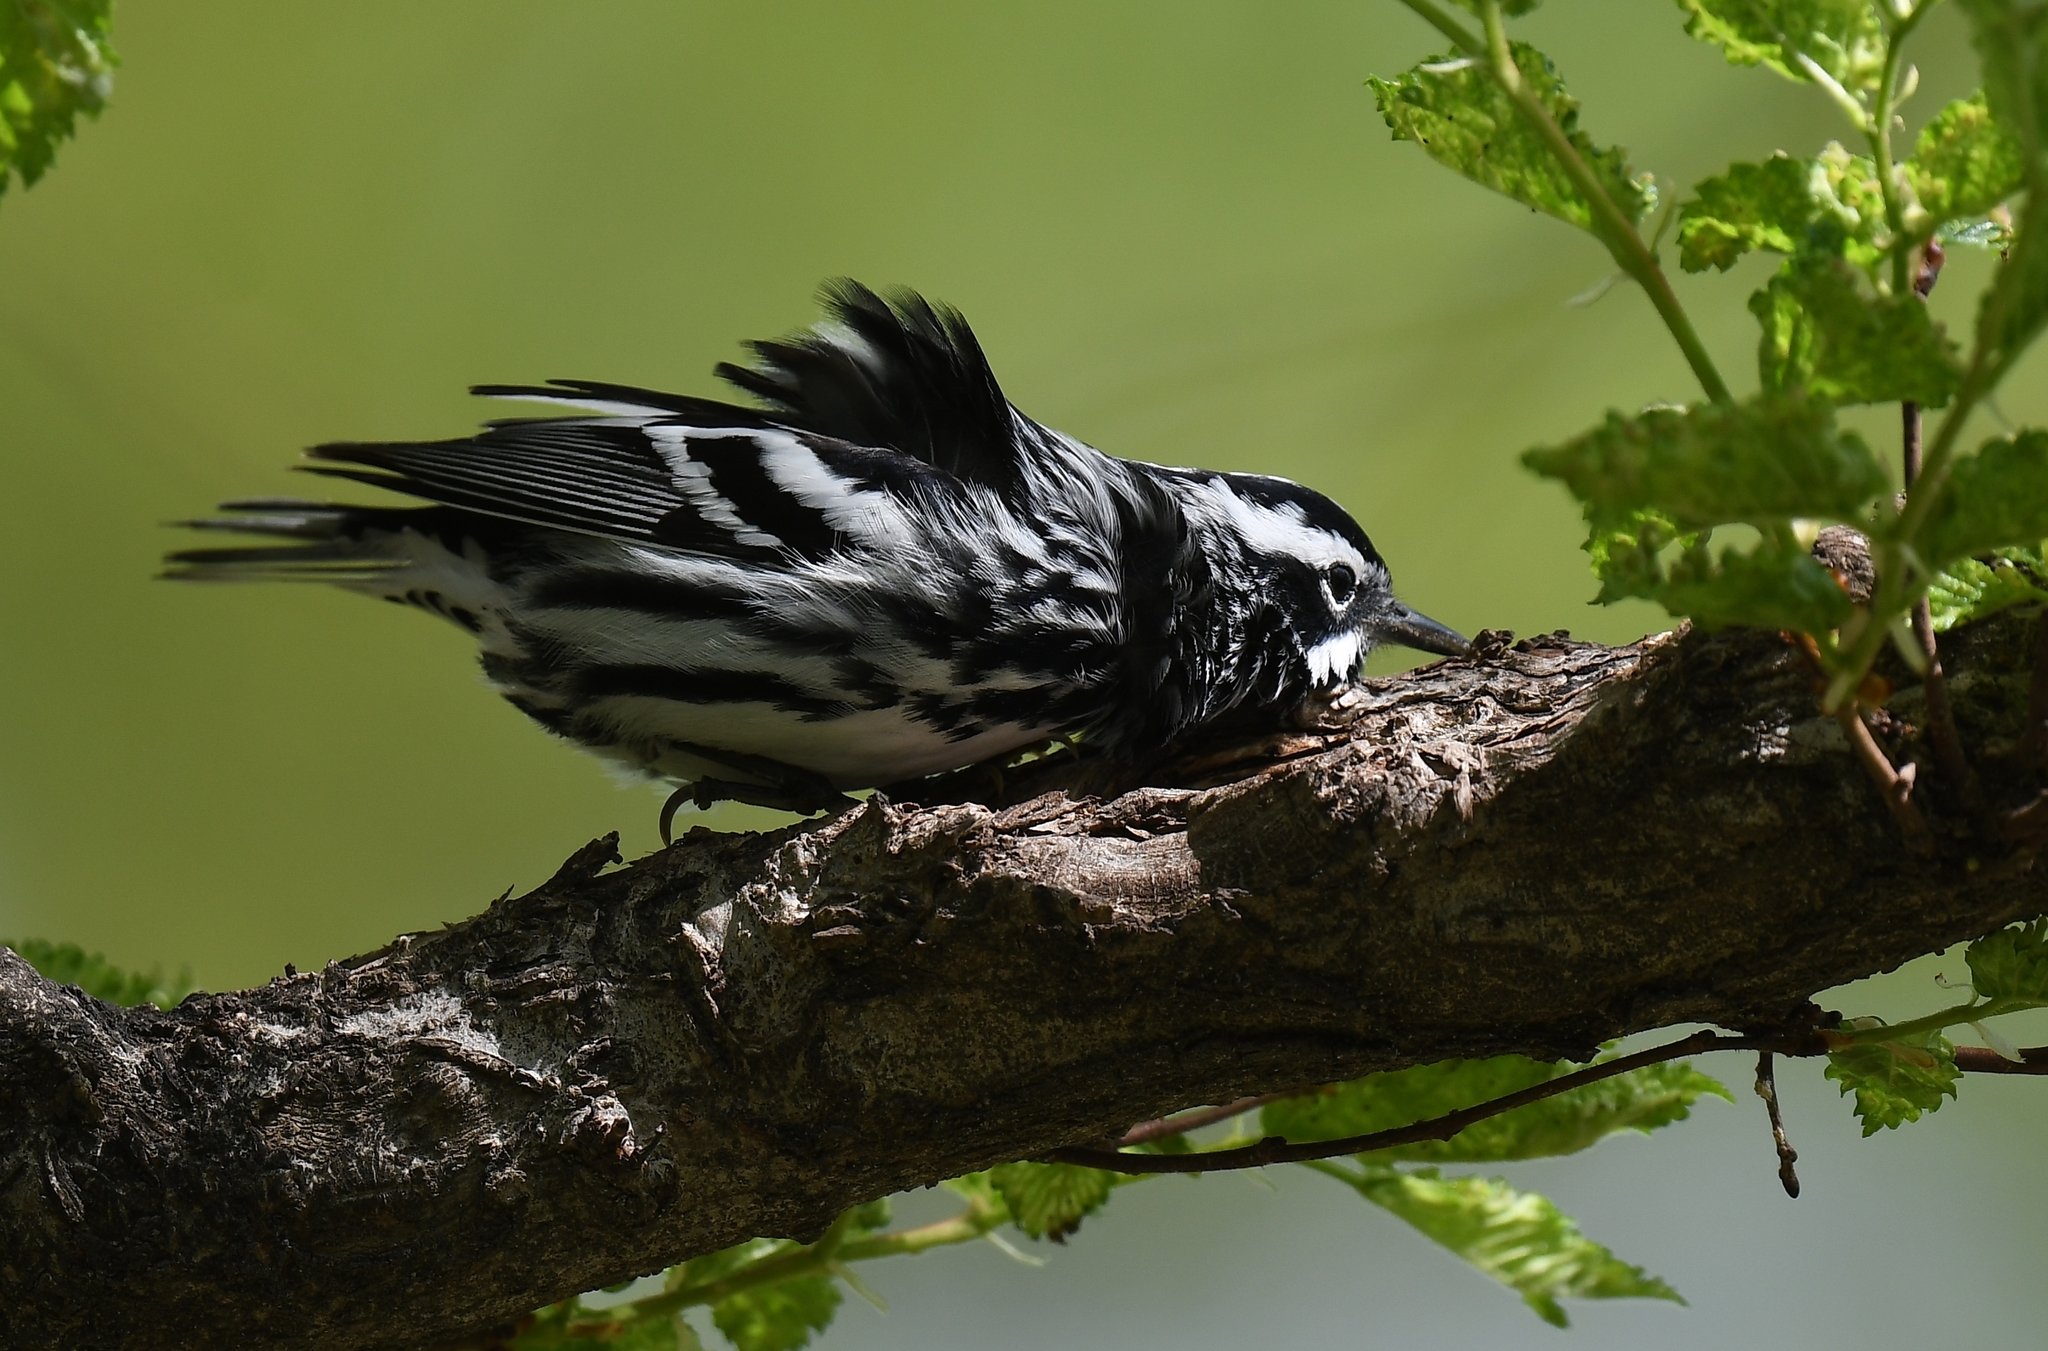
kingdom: Animalia
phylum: Chordata
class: Aves
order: Passeriformes
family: Parulidae
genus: Mniotilta
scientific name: Mniotilta varia
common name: Black-and-white warbler
